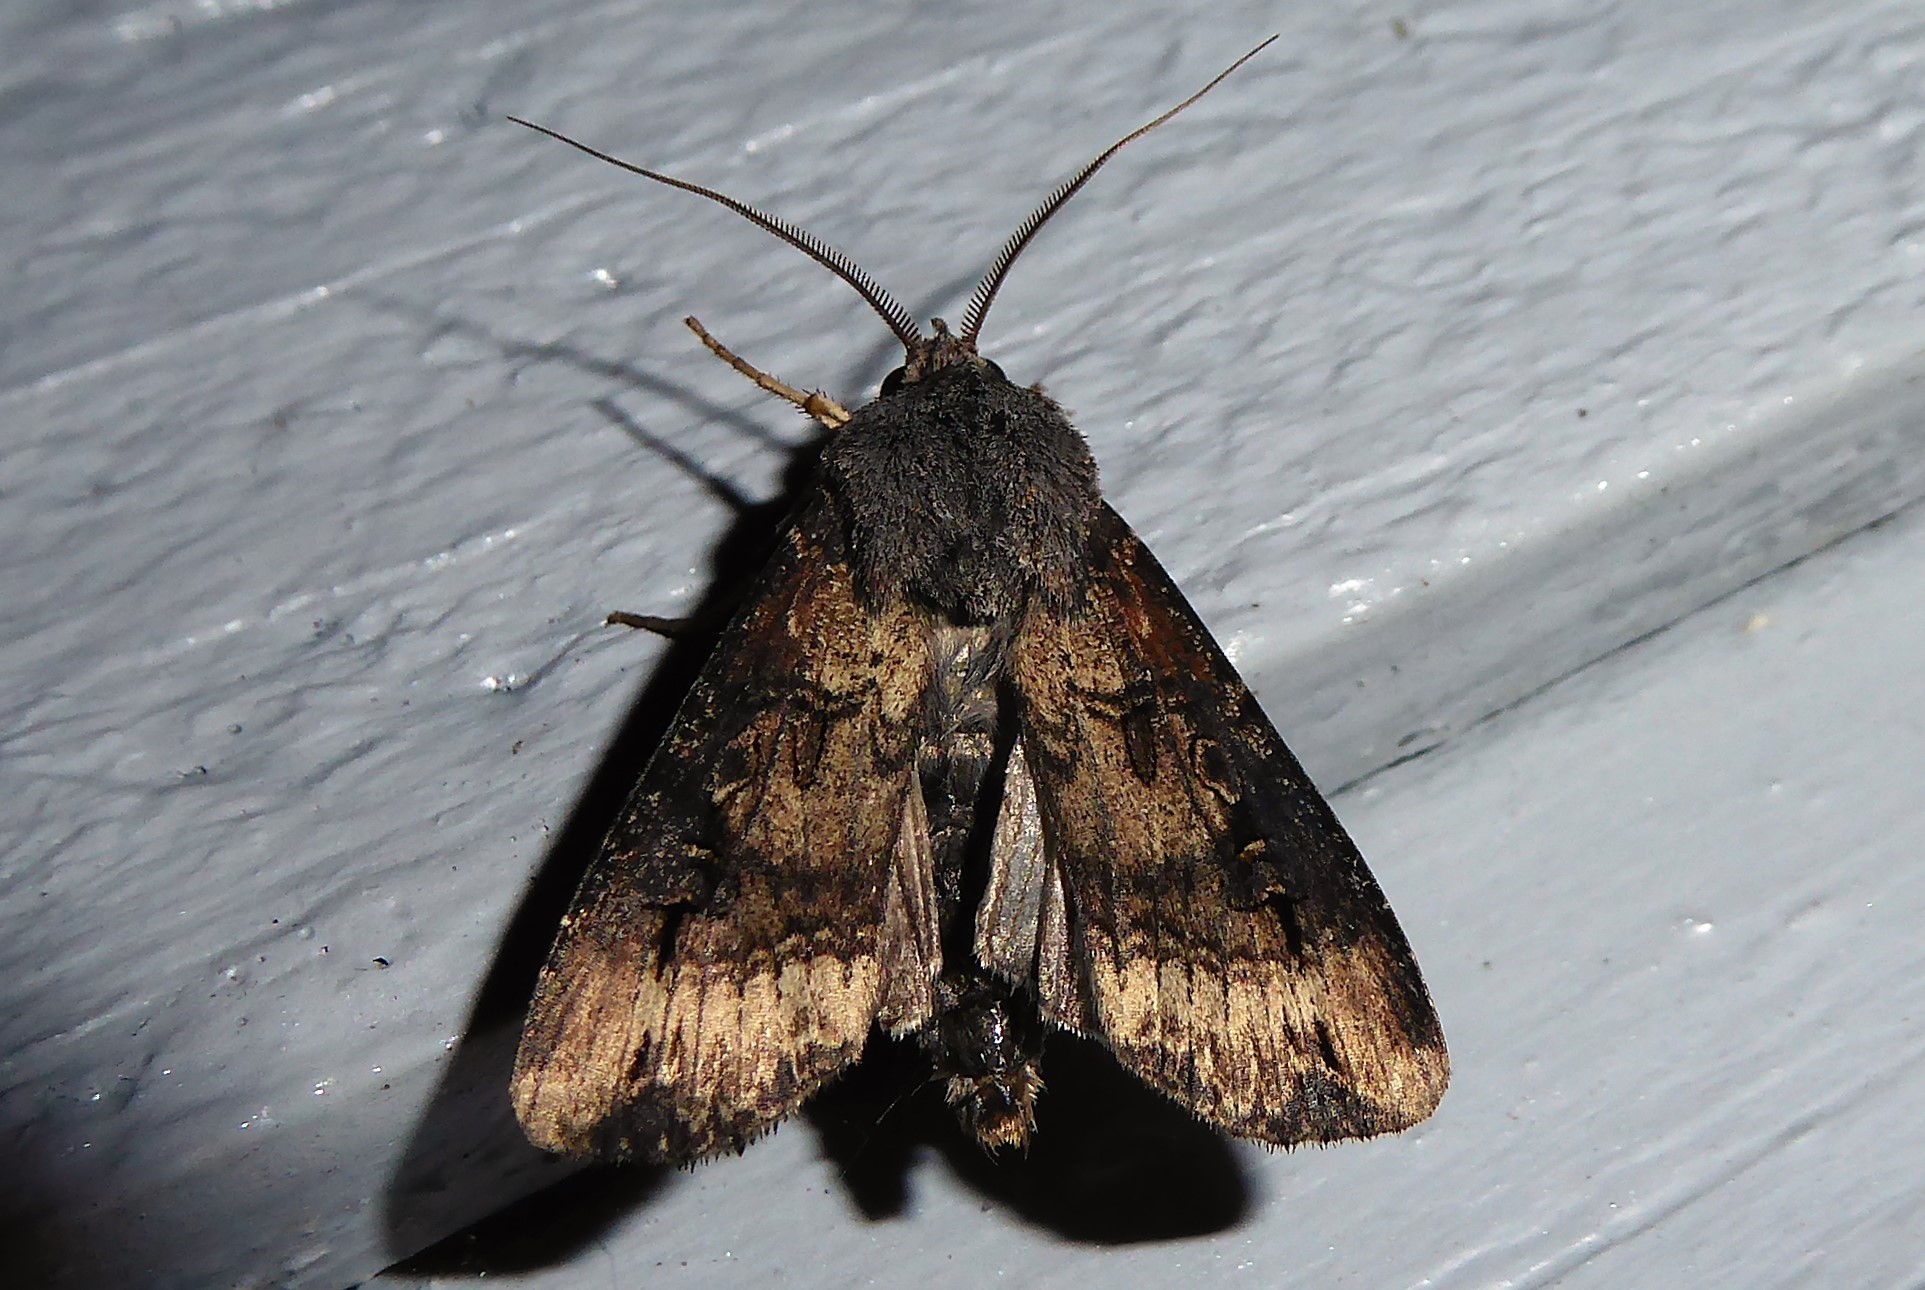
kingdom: Animalia
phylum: Arthropoda
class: Insecta
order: Lepidoptera
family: Noctuidae
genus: Agrotis
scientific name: Agrotis ipsilon
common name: Dark sword-grass
